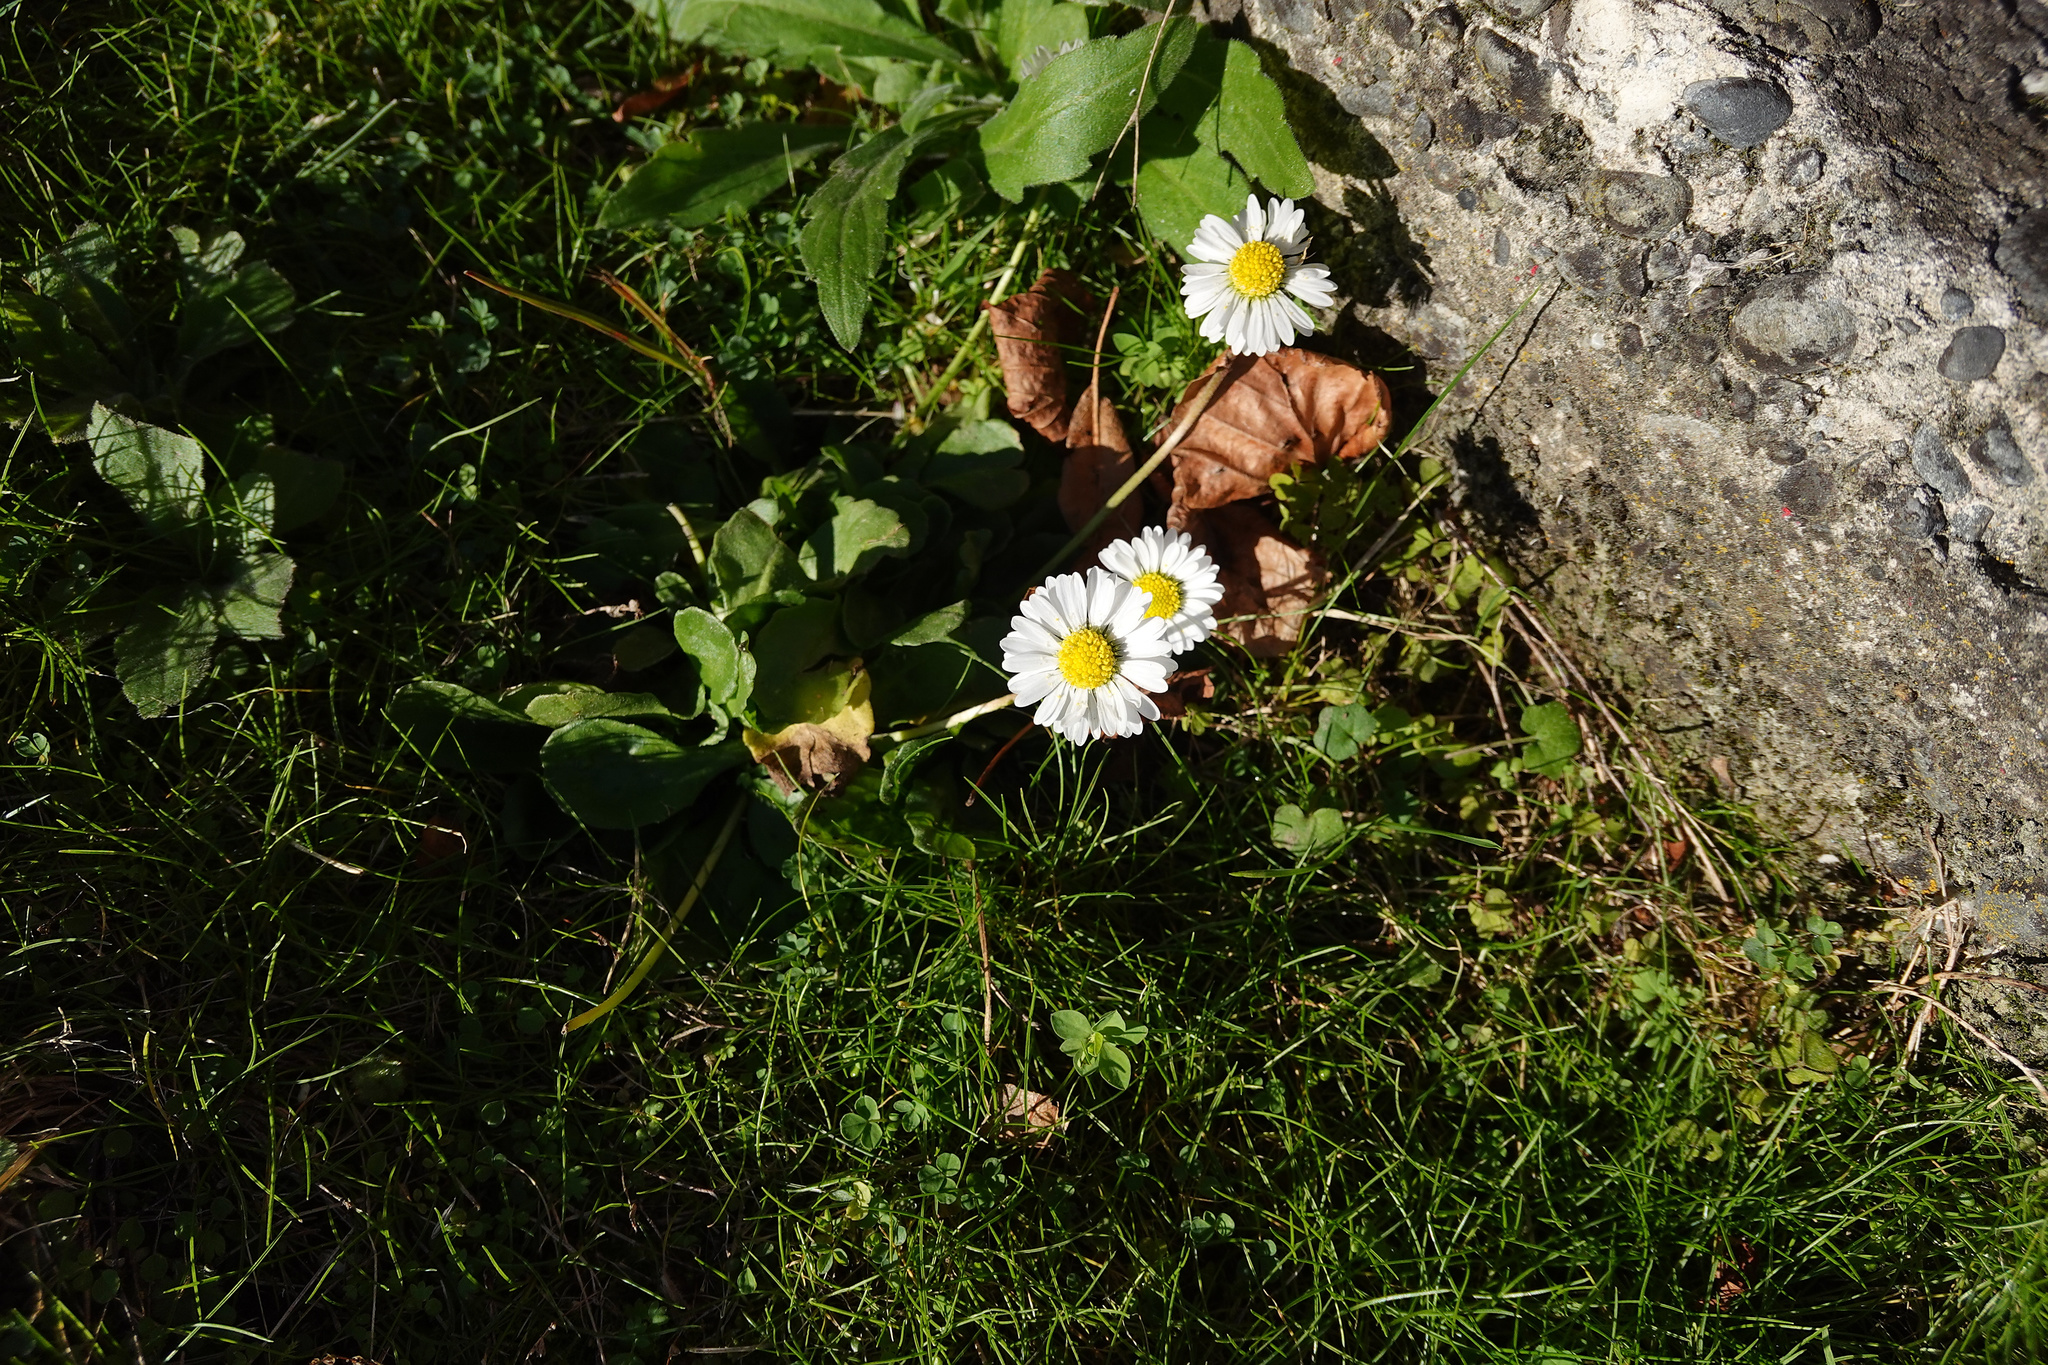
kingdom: Plantae
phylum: Tracheophyta
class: Magnoliopsida
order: Asterales
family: Asteraceae
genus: Bellis
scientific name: Bellis perennis
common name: Lawndaisy
